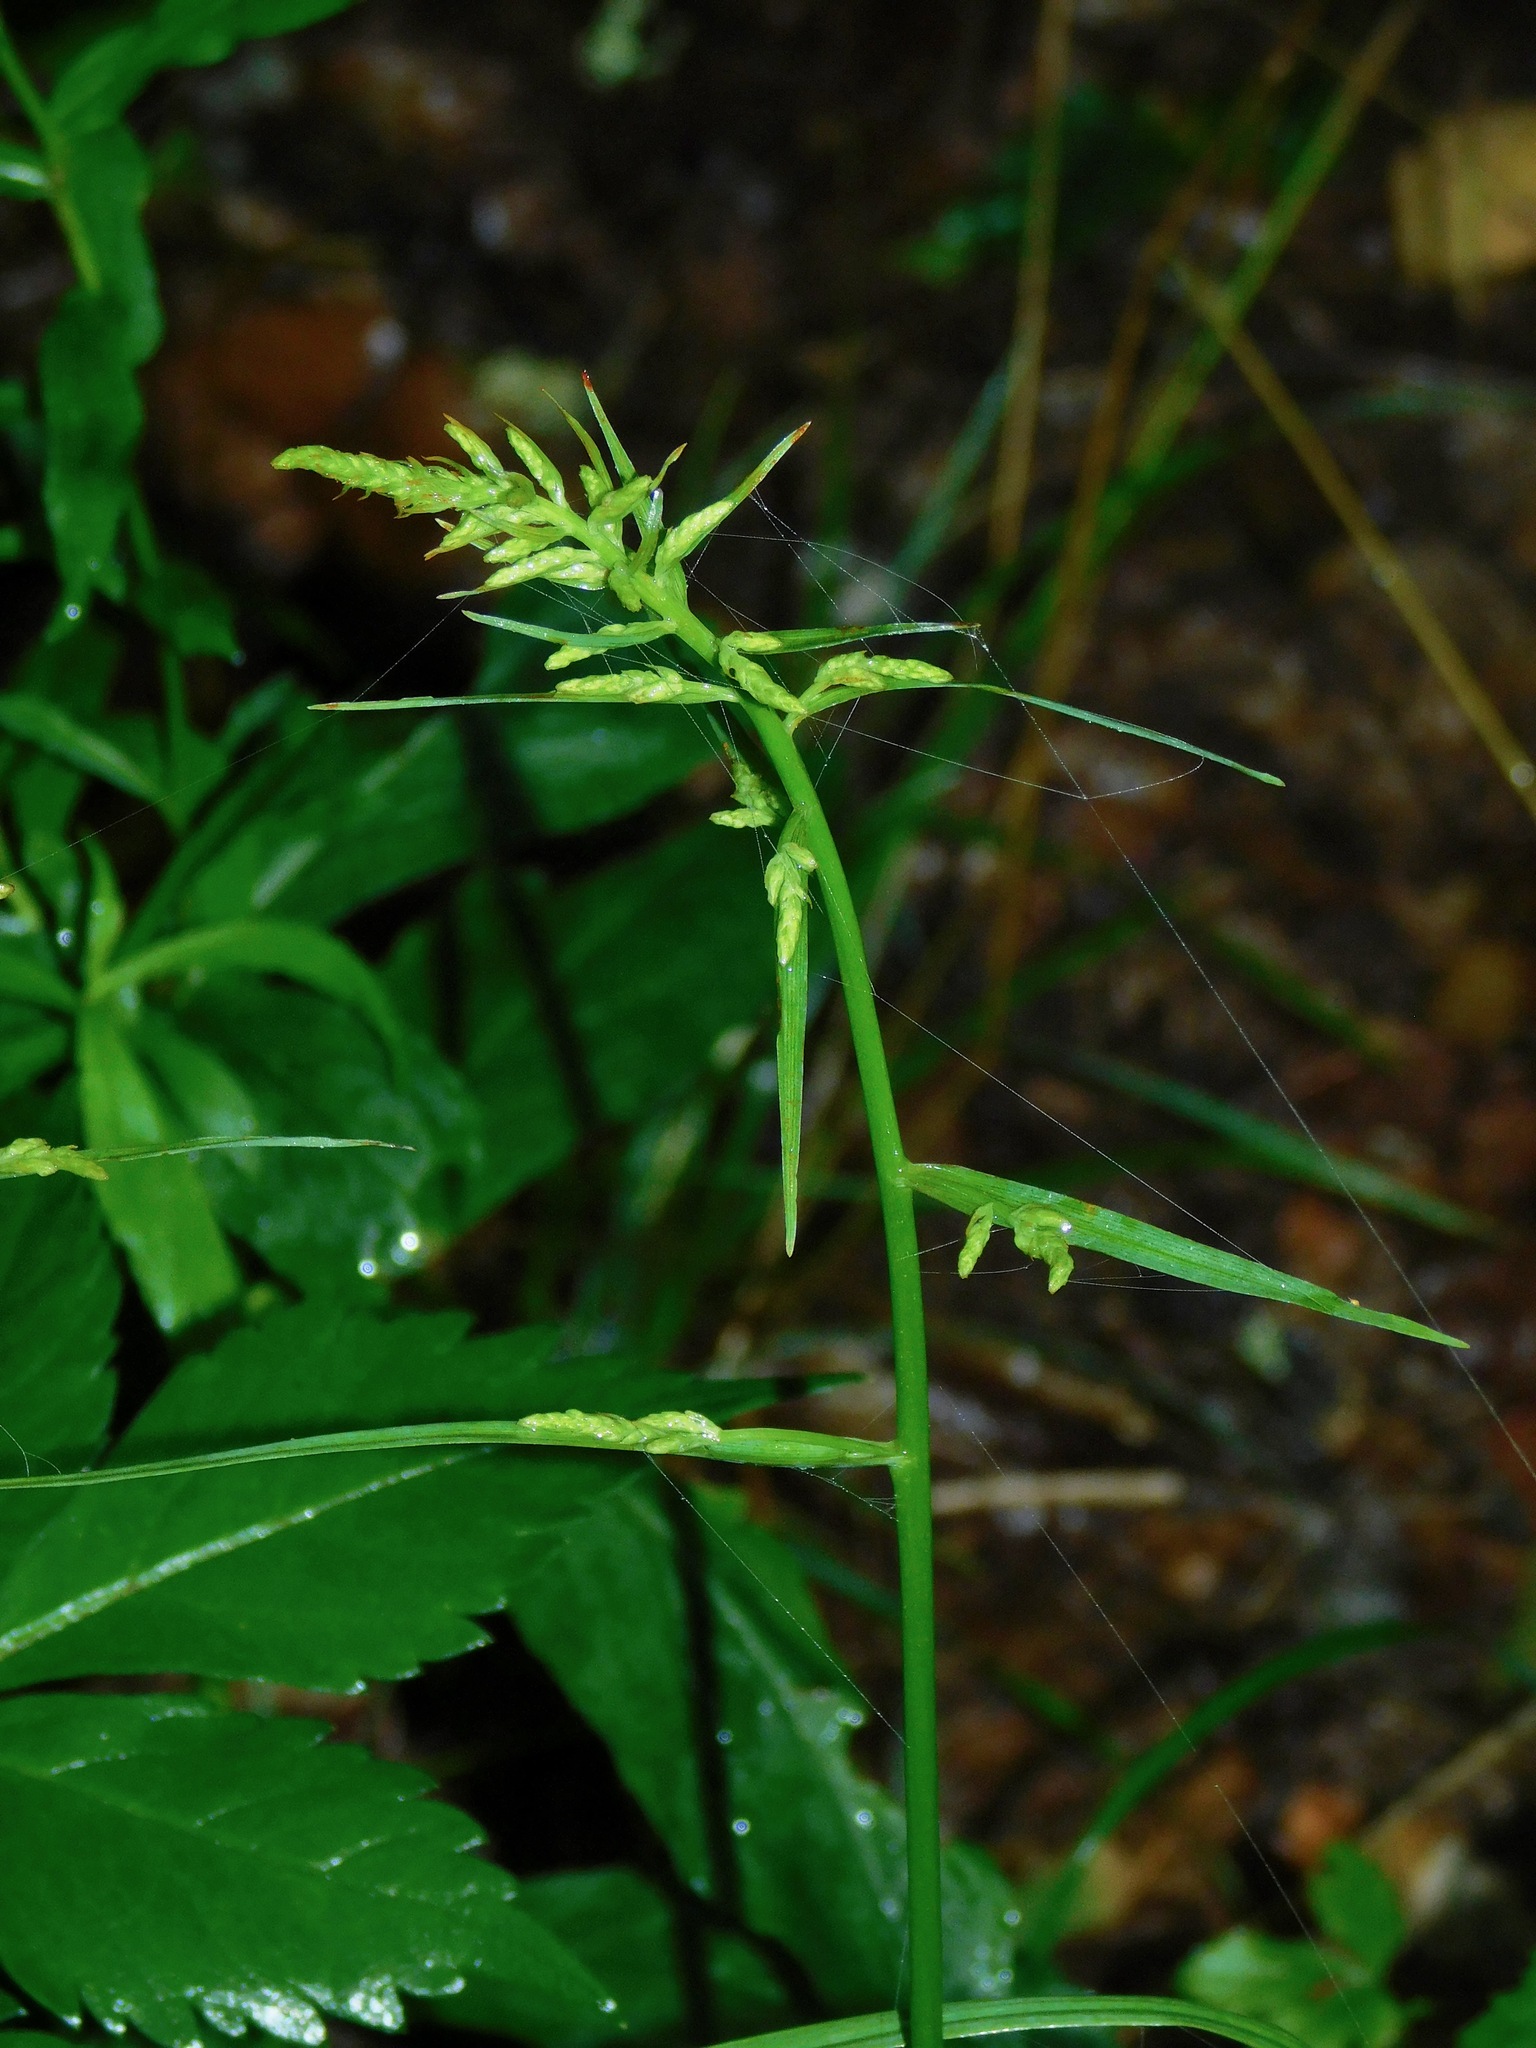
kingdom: Plantae
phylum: Tracheophyta
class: Liliopsida
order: Liliales
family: Melanthiaceae
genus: Melanthium
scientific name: Melanthium virginicum
